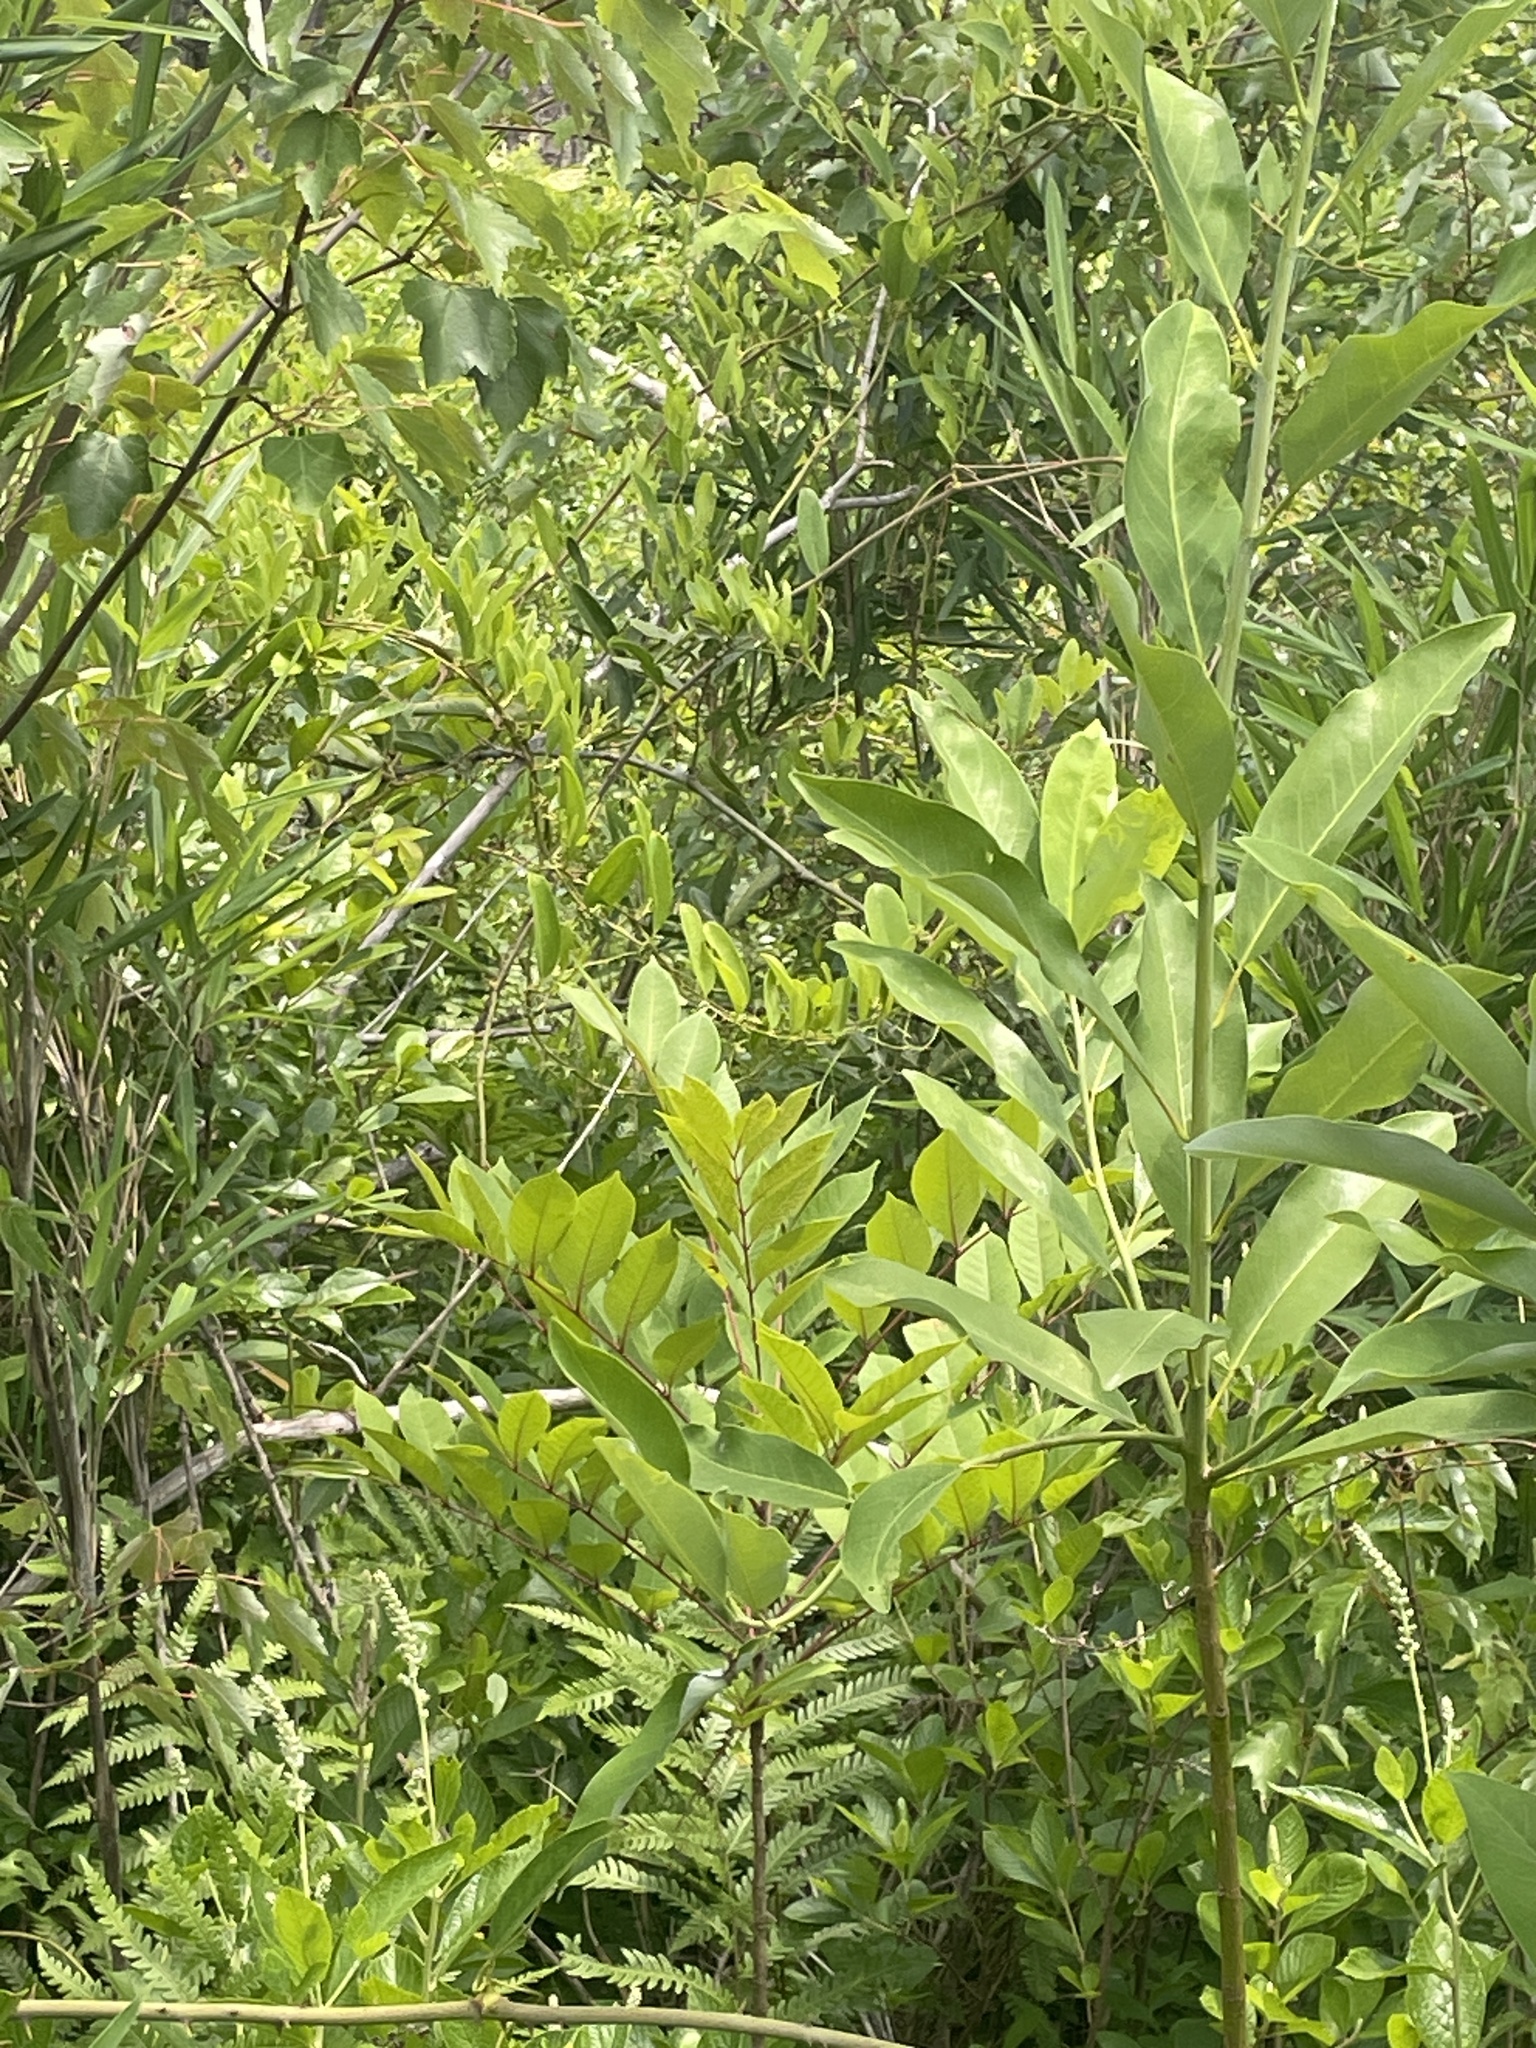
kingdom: Plantae
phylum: Tracheophyta
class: Magnoliopsida
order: Sapindales
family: Anacardiaceae
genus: Toxicodendron
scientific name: Toxicodendron vernix
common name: Poison sumac
